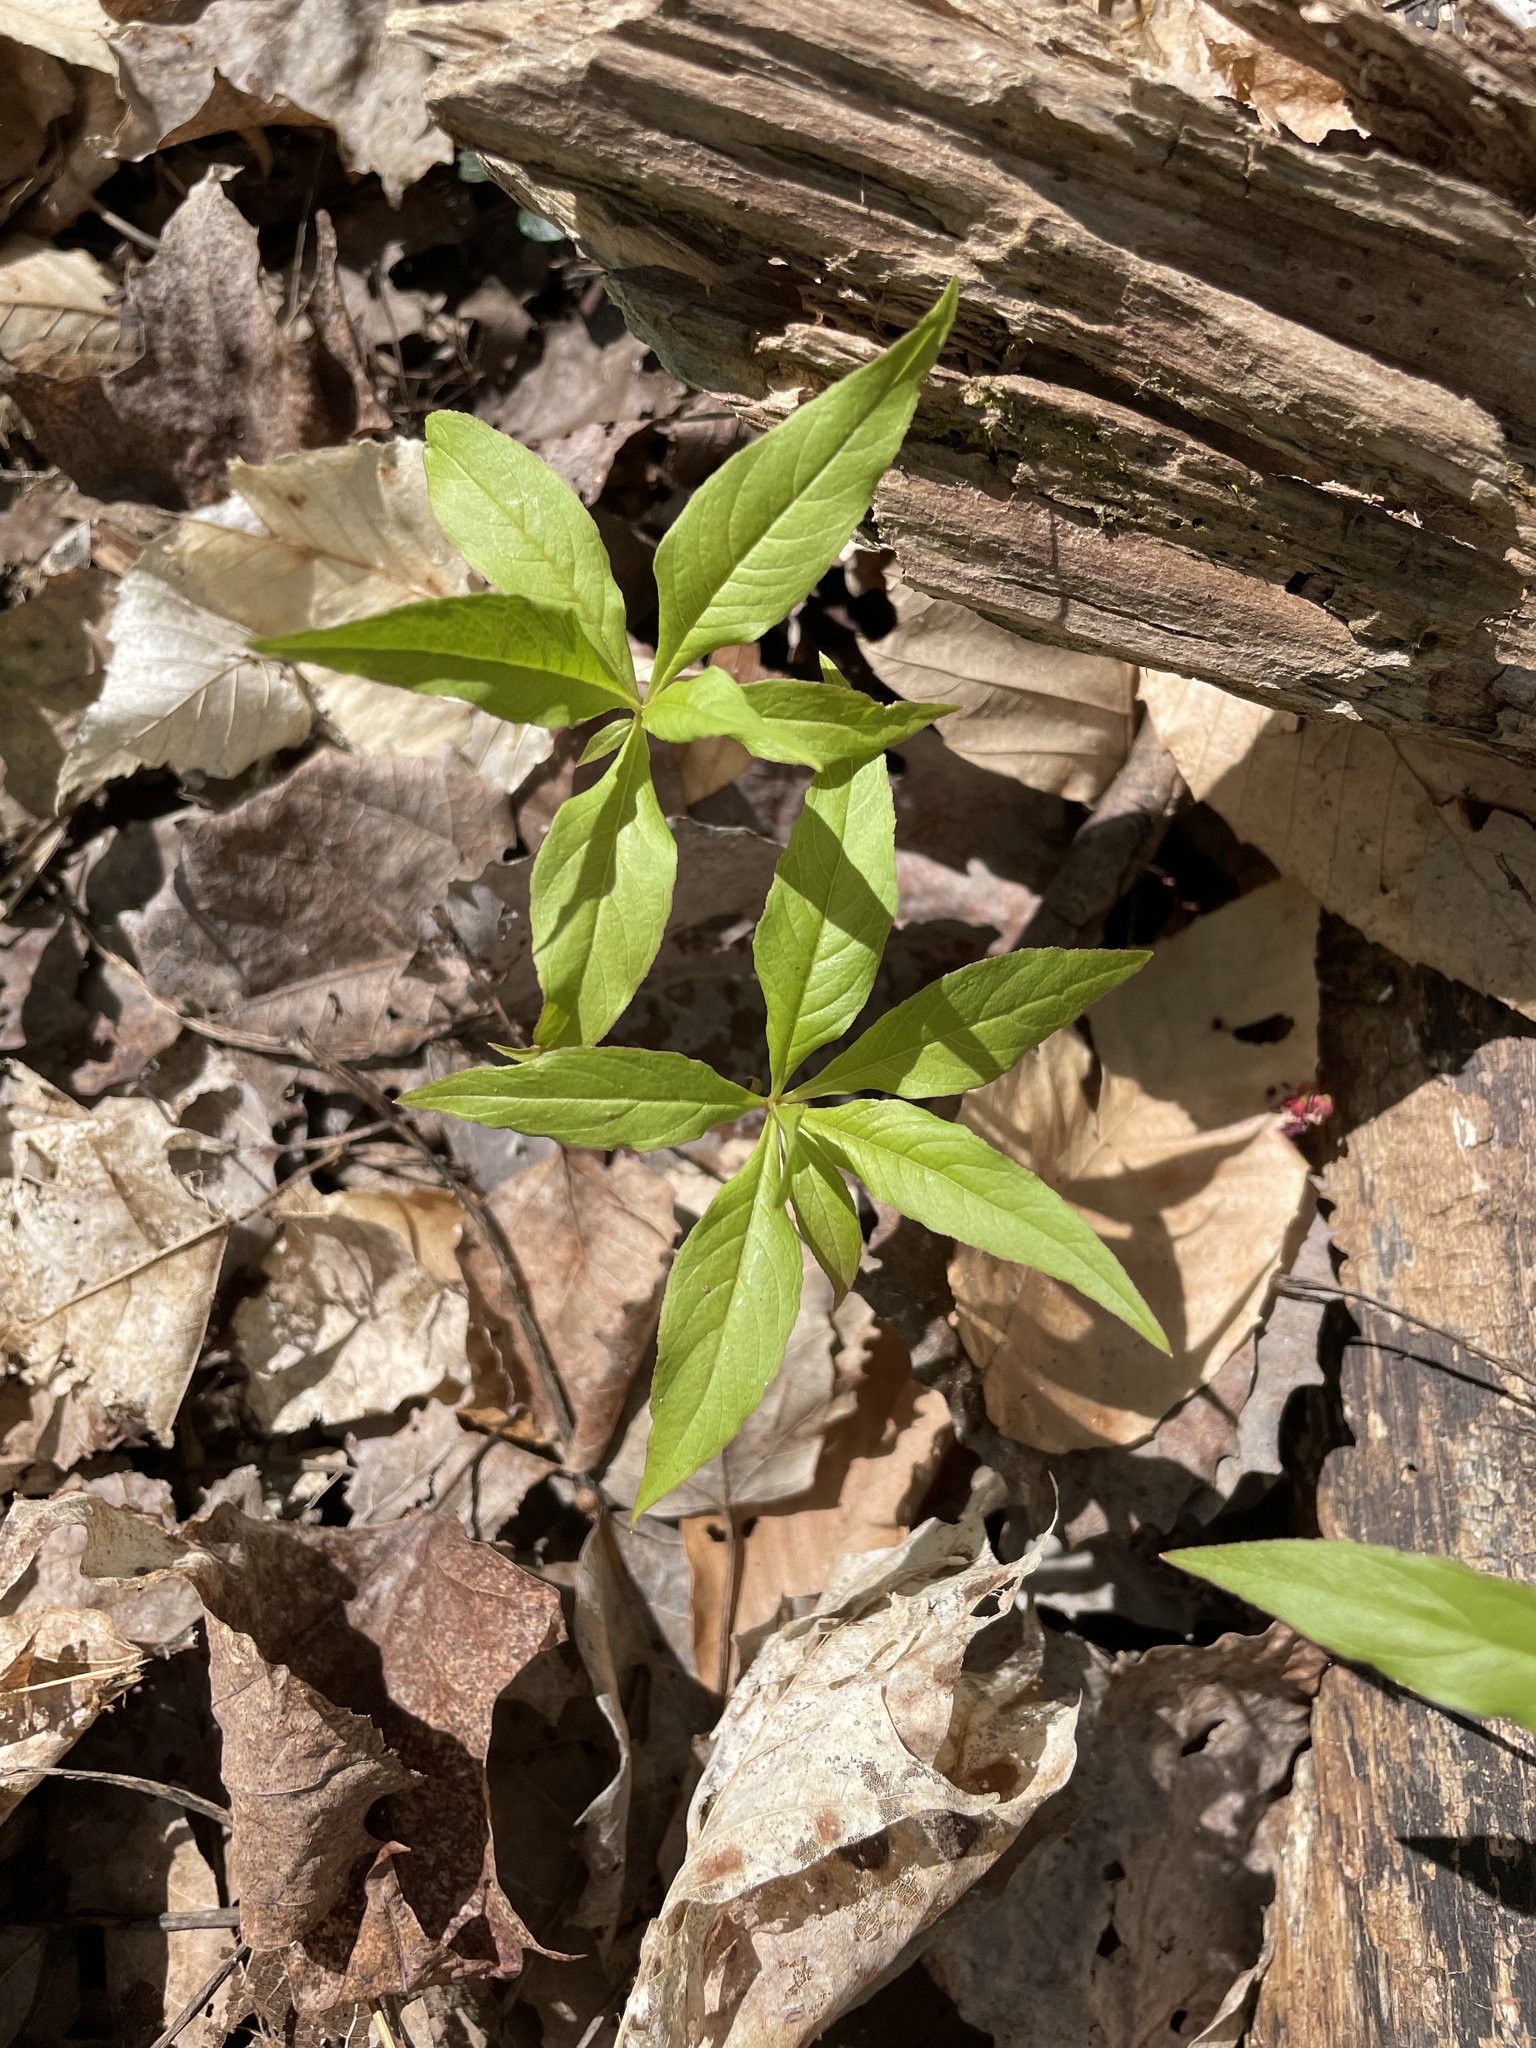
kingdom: Plantae
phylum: Tracheophyta
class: Magnoliopsida
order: Ericales
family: Primulaceae
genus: Lysimachia
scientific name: Lysimachia borealis
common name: American starflower
